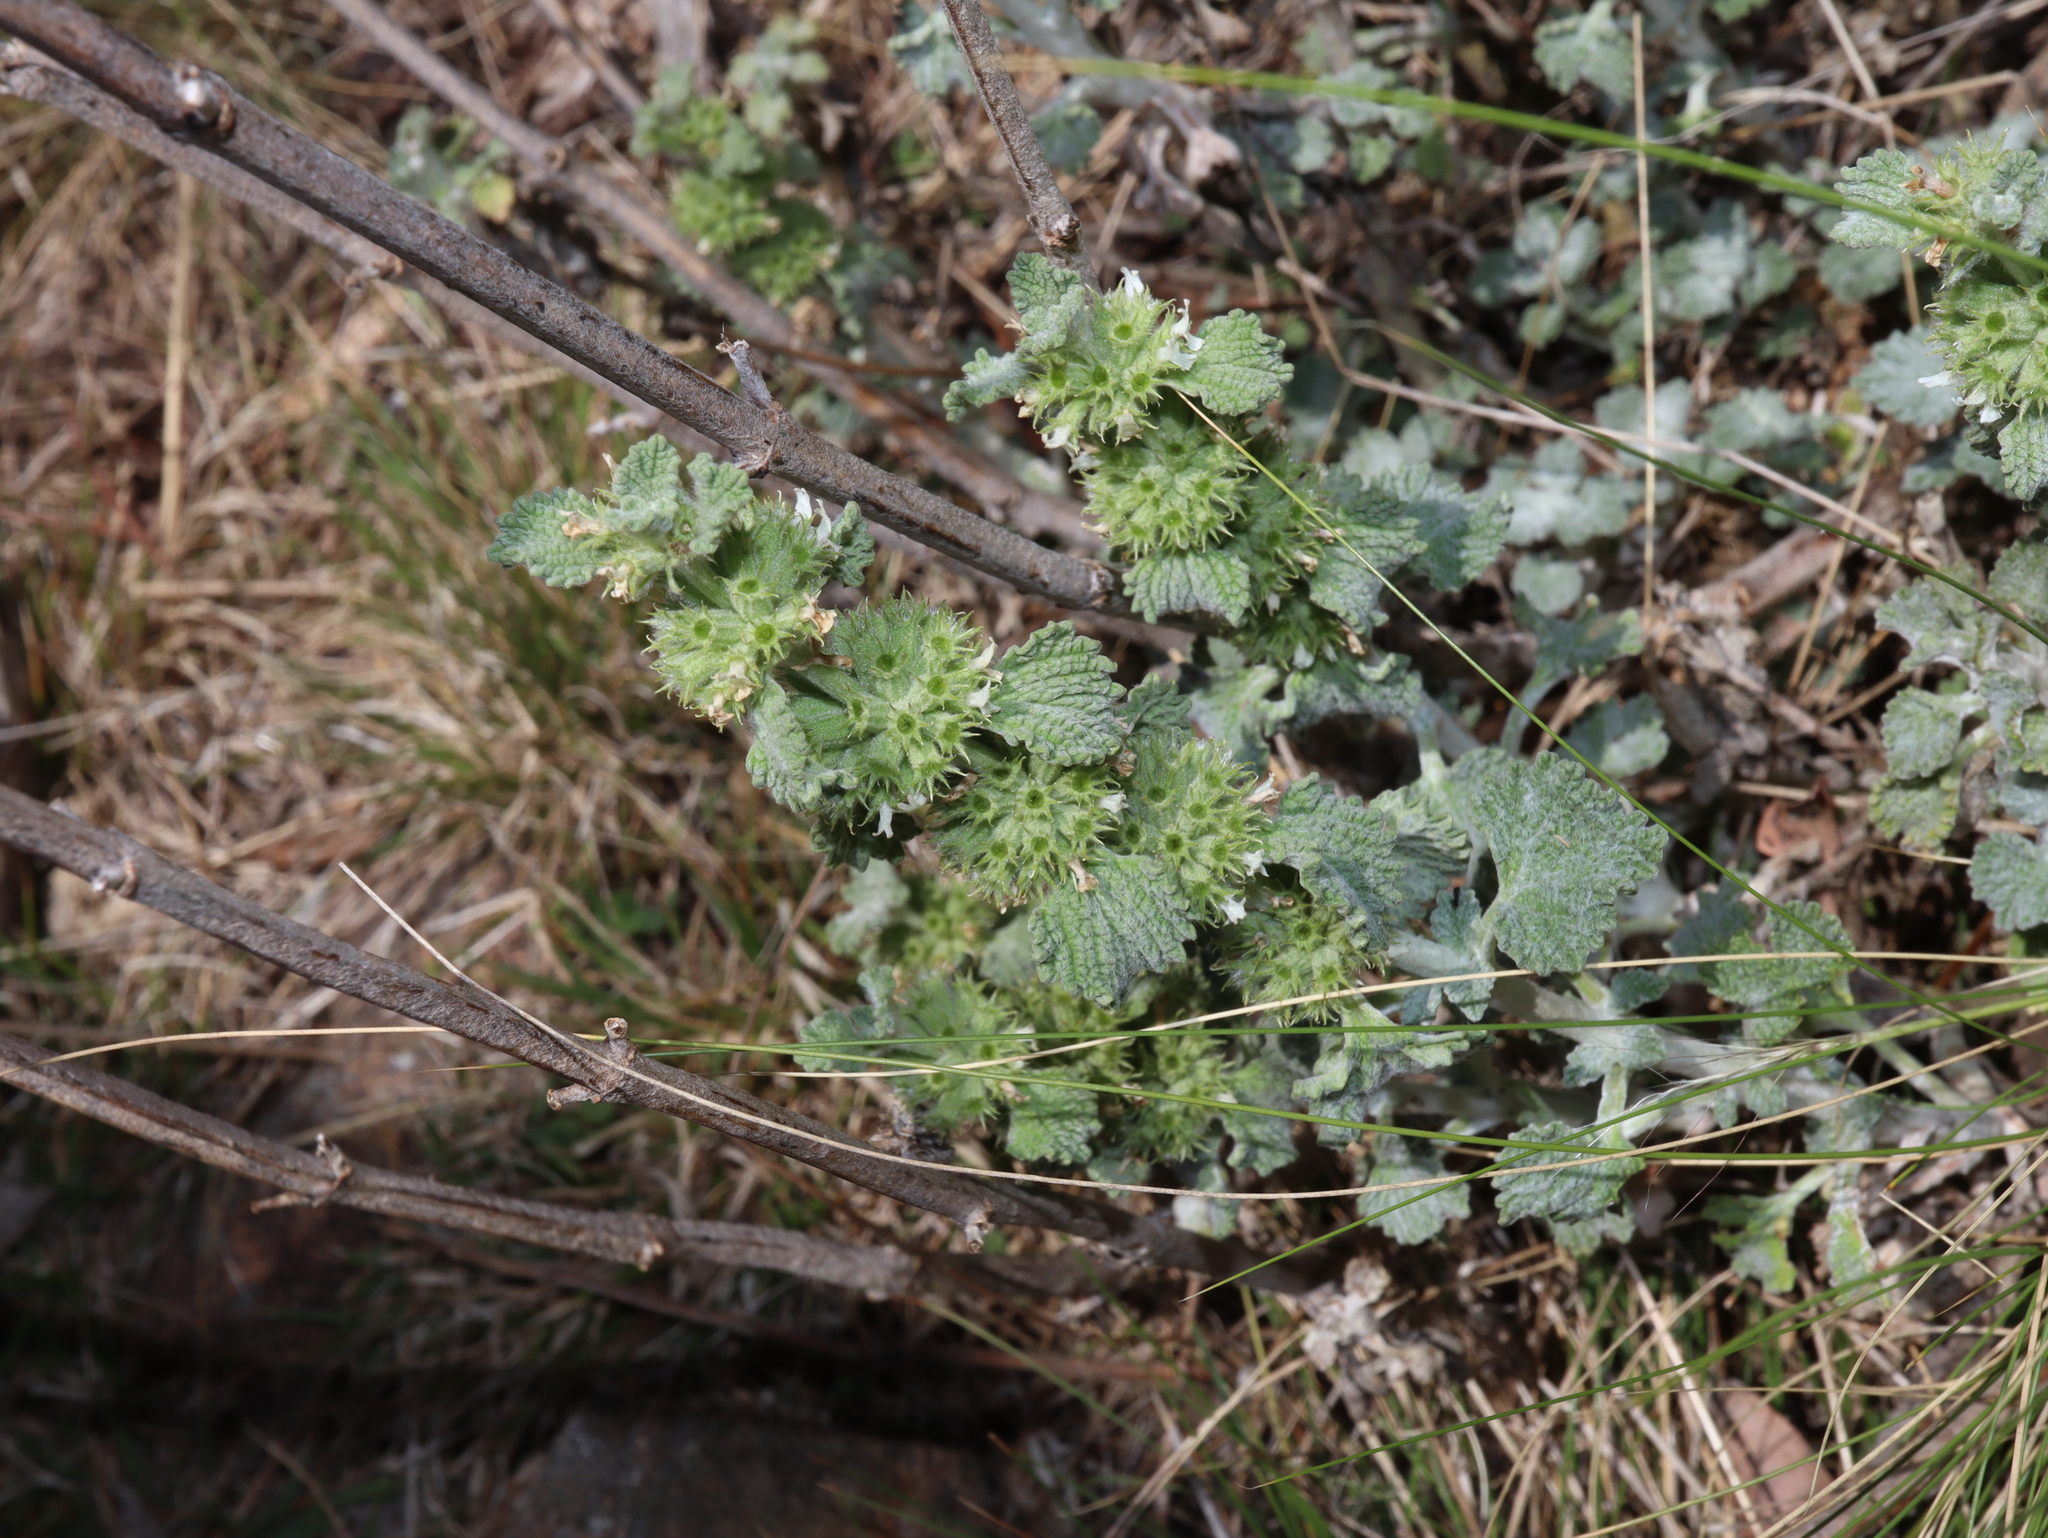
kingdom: Plantae
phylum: Tracheophyta
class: Magnoliopsida
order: Lamiales
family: Lamiaceae
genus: Marrubium
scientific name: Marrubium vulgare
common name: Horehound
